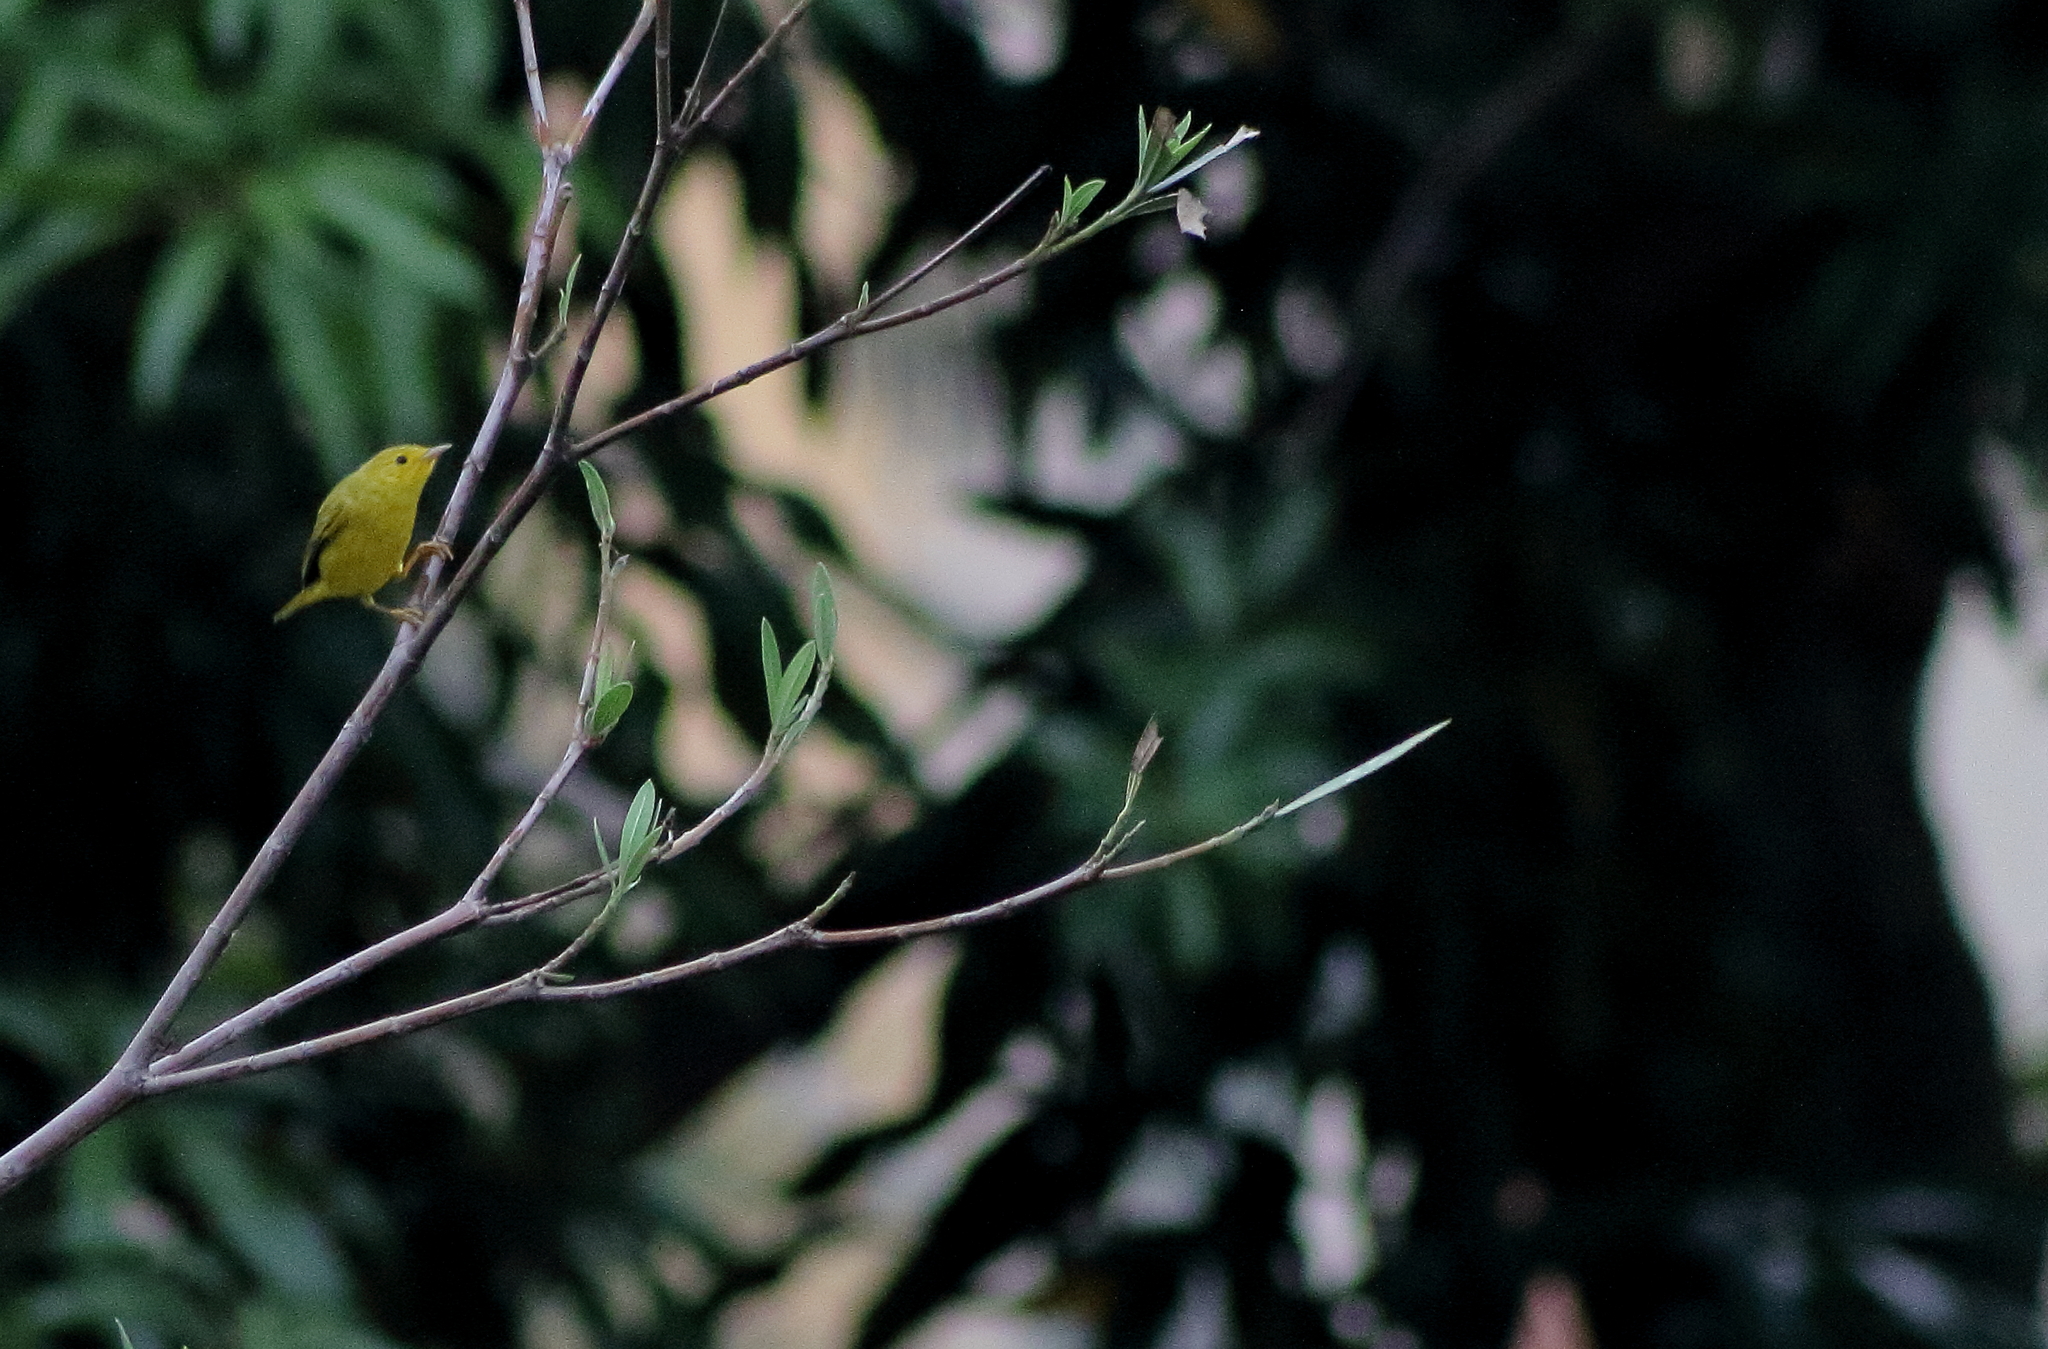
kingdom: Animalia
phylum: Chordata
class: Aves
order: Passeriformes
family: Parulidae
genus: Setophaga
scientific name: Setophaga petechia
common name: Yellow warbler
